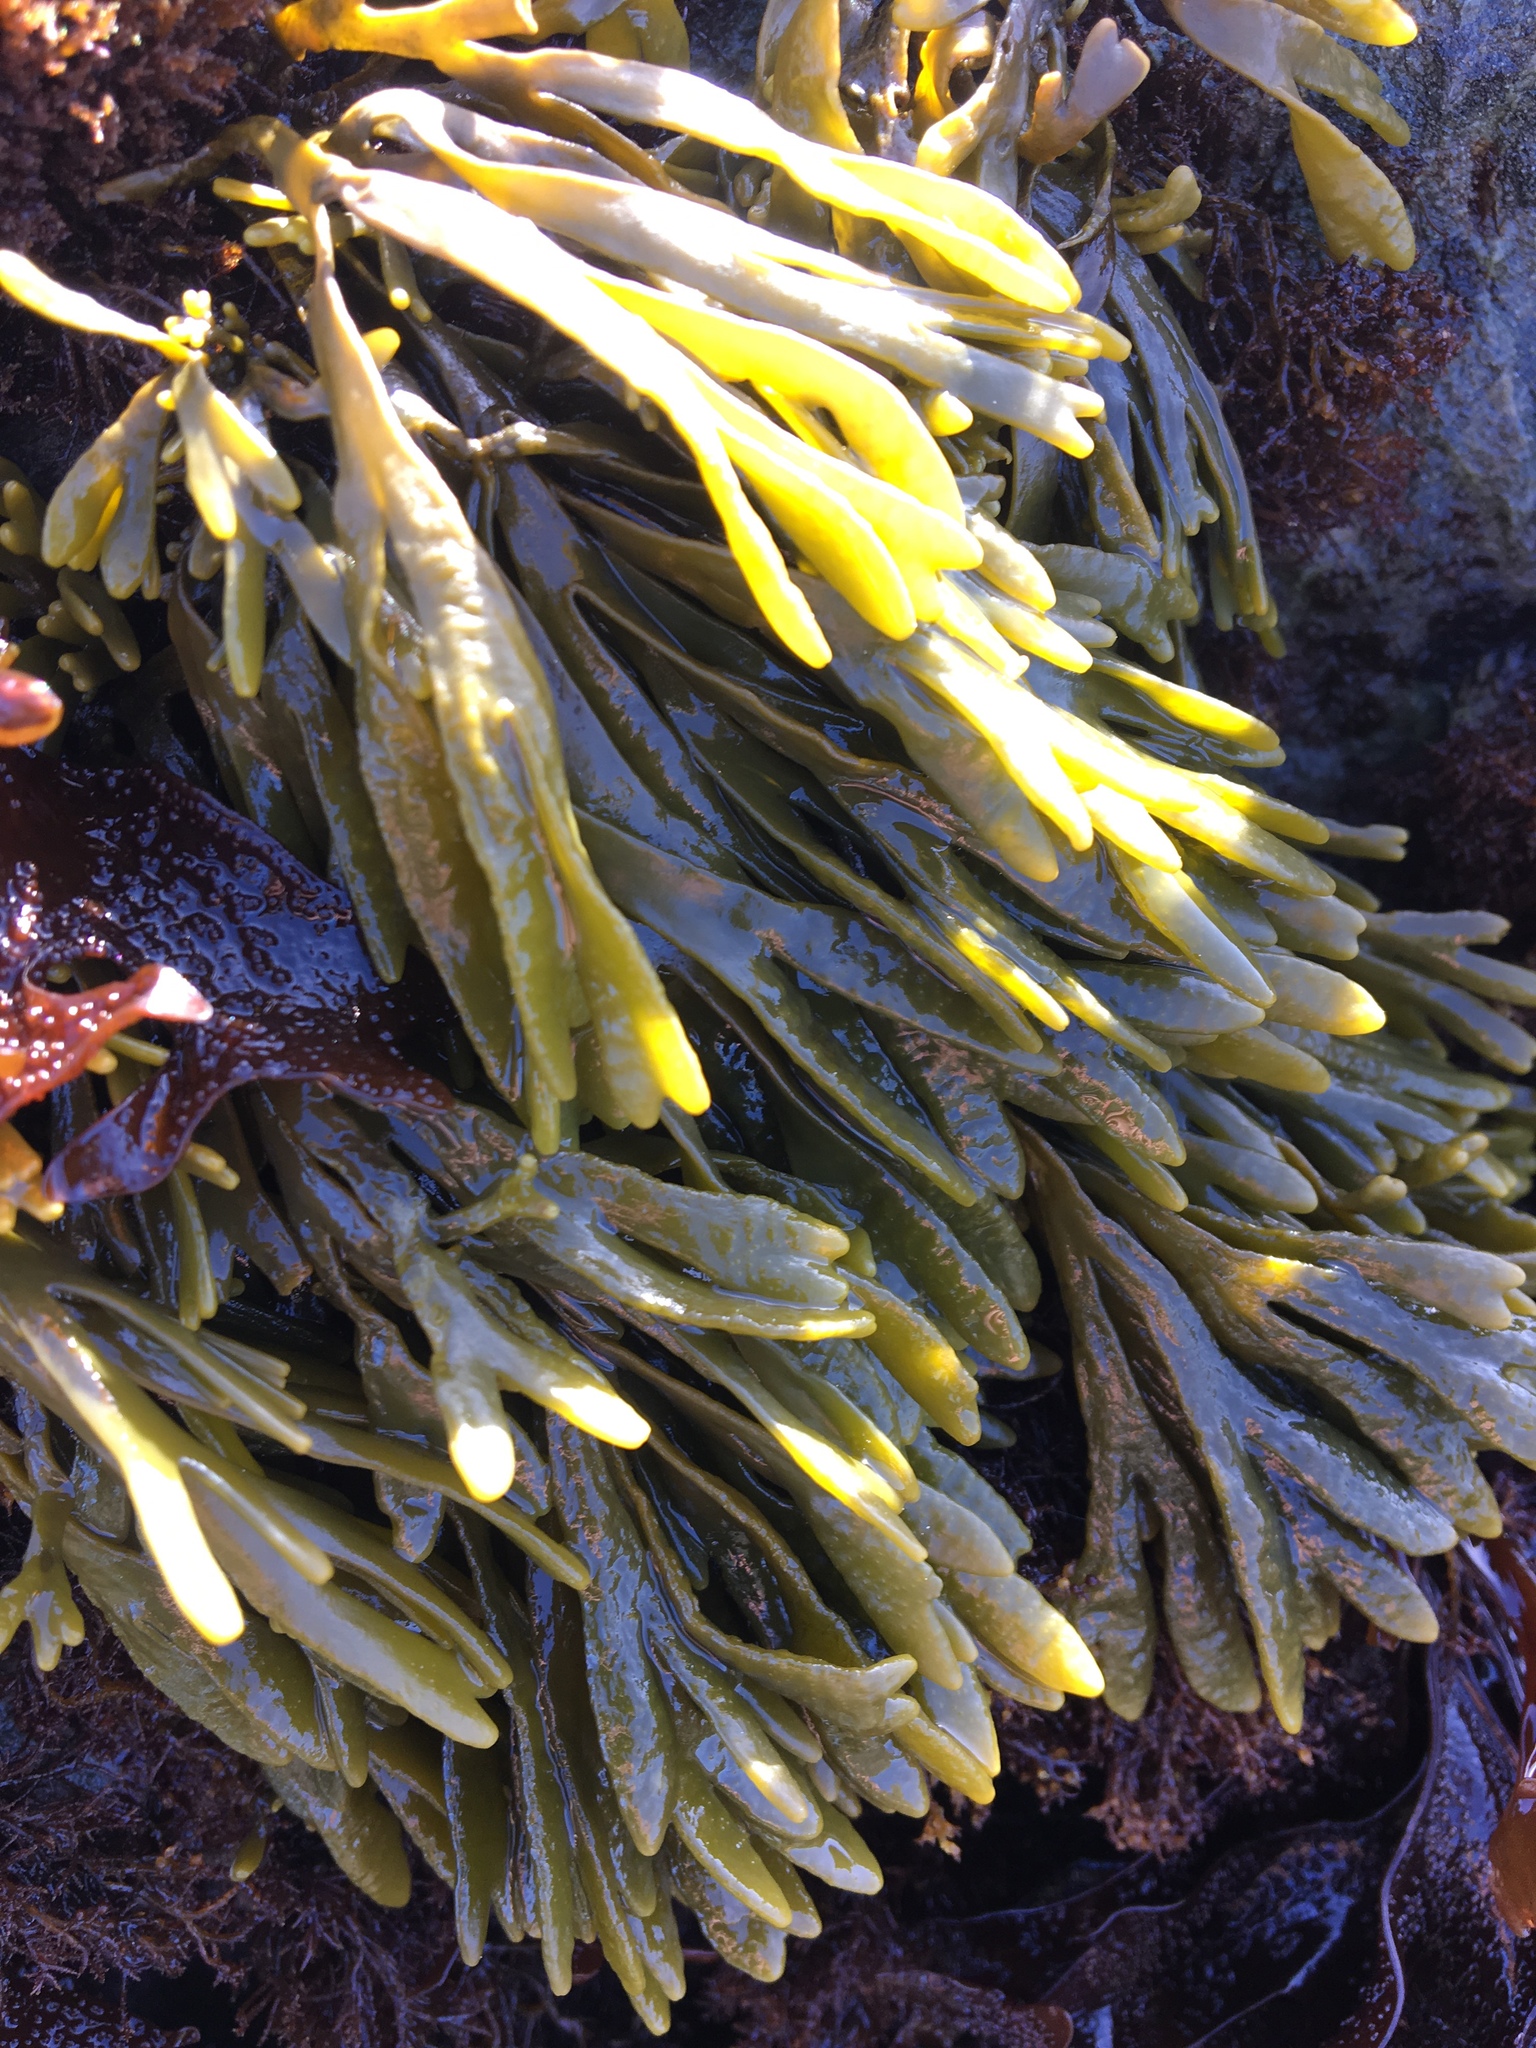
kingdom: Chromista
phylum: Ochrophyta
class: Phaeophyceae
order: Fucales
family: Fucaceae
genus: Pelvetiopsis
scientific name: Pelvetiopsis limitata
